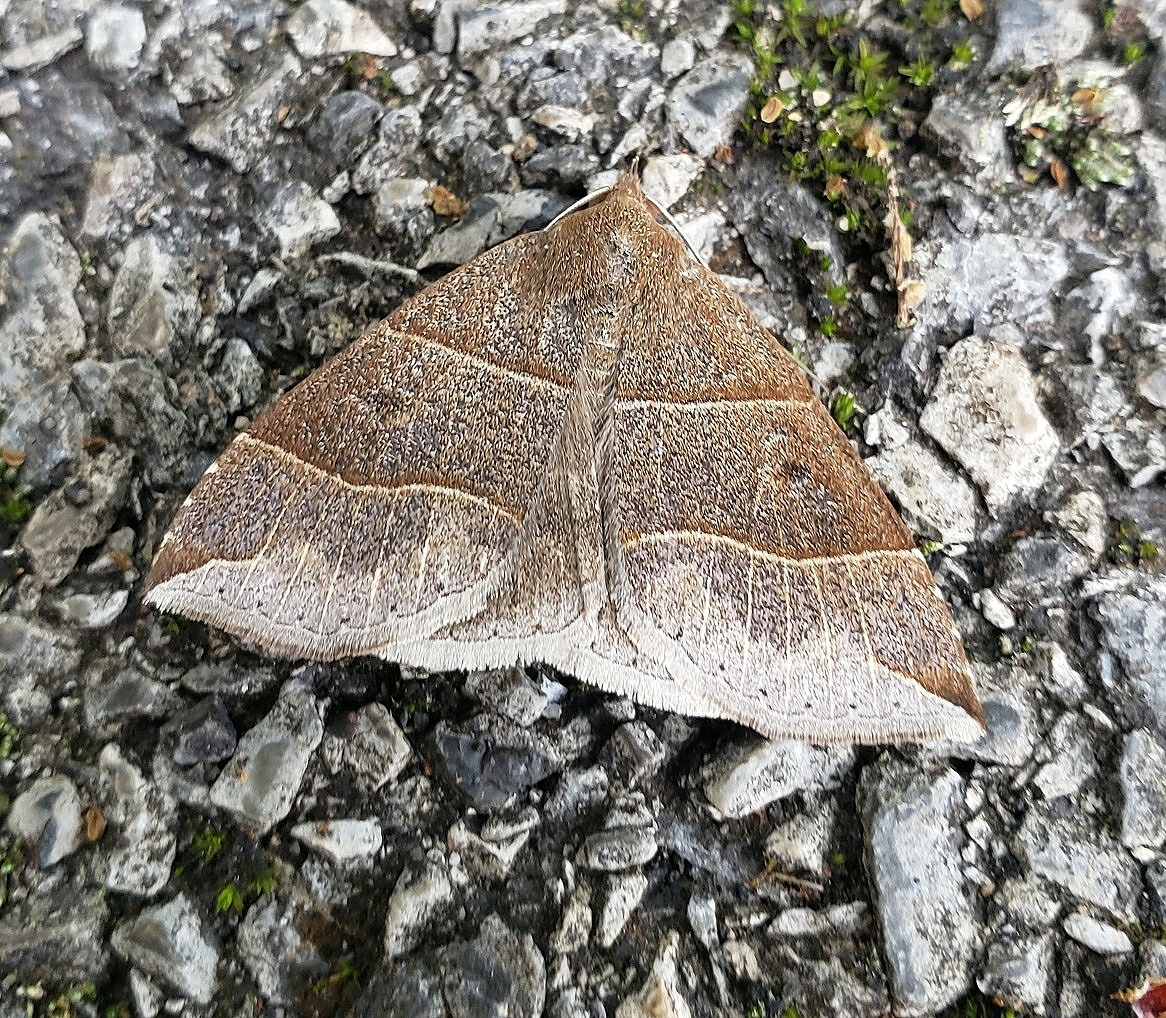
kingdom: Animalia
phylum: Arthropoda
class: Insecta
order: Lepidoptera
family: Erebidae
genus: Parallelia
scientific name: Parallelia bistriaris
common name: Maple looper moth
